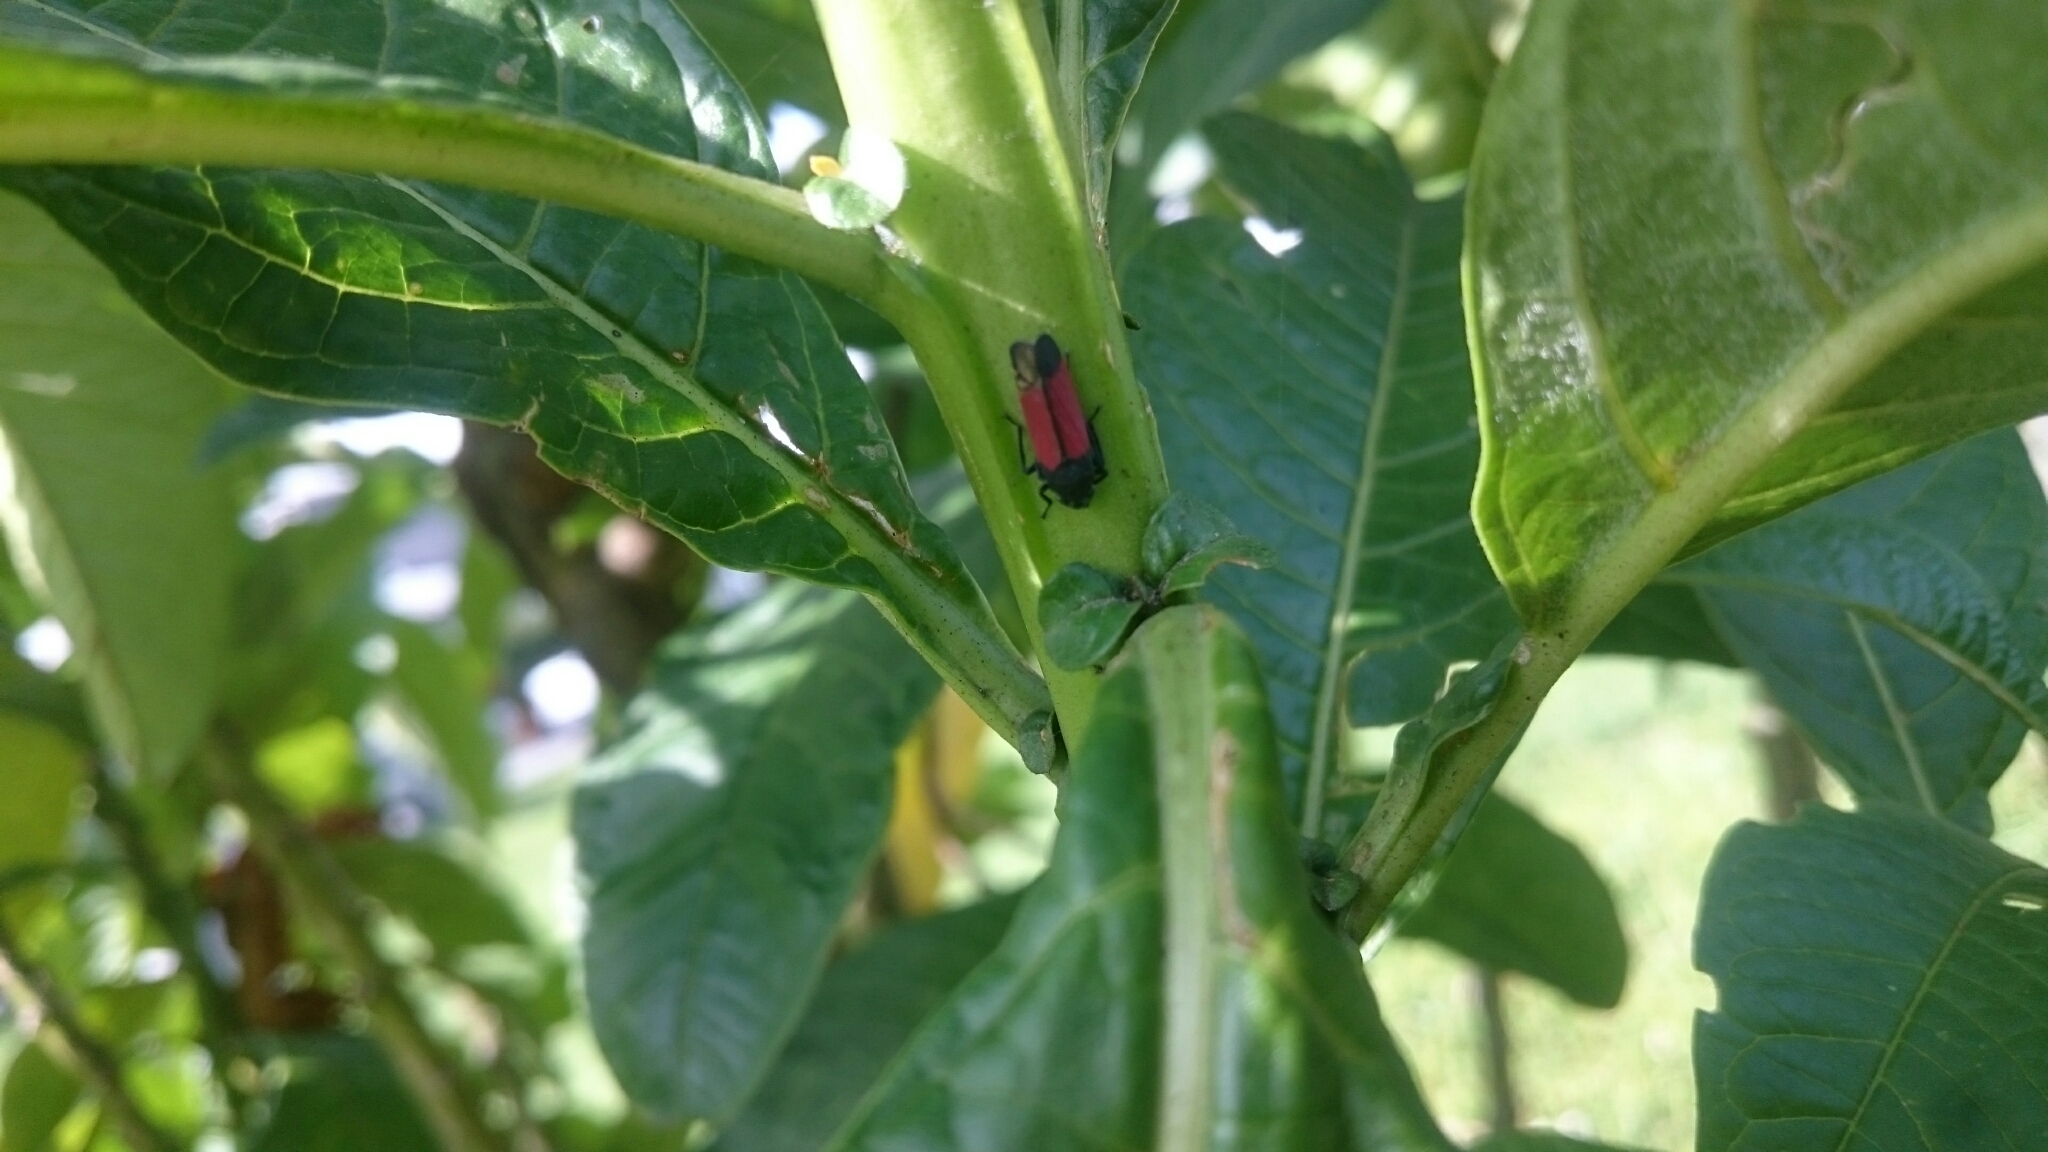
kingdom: Animalia
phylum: Arthropoda
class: Insecta
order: Hemiptera
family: Cicadellidae
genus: Cardioscarta
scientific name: Cardioscarta flavifrons
